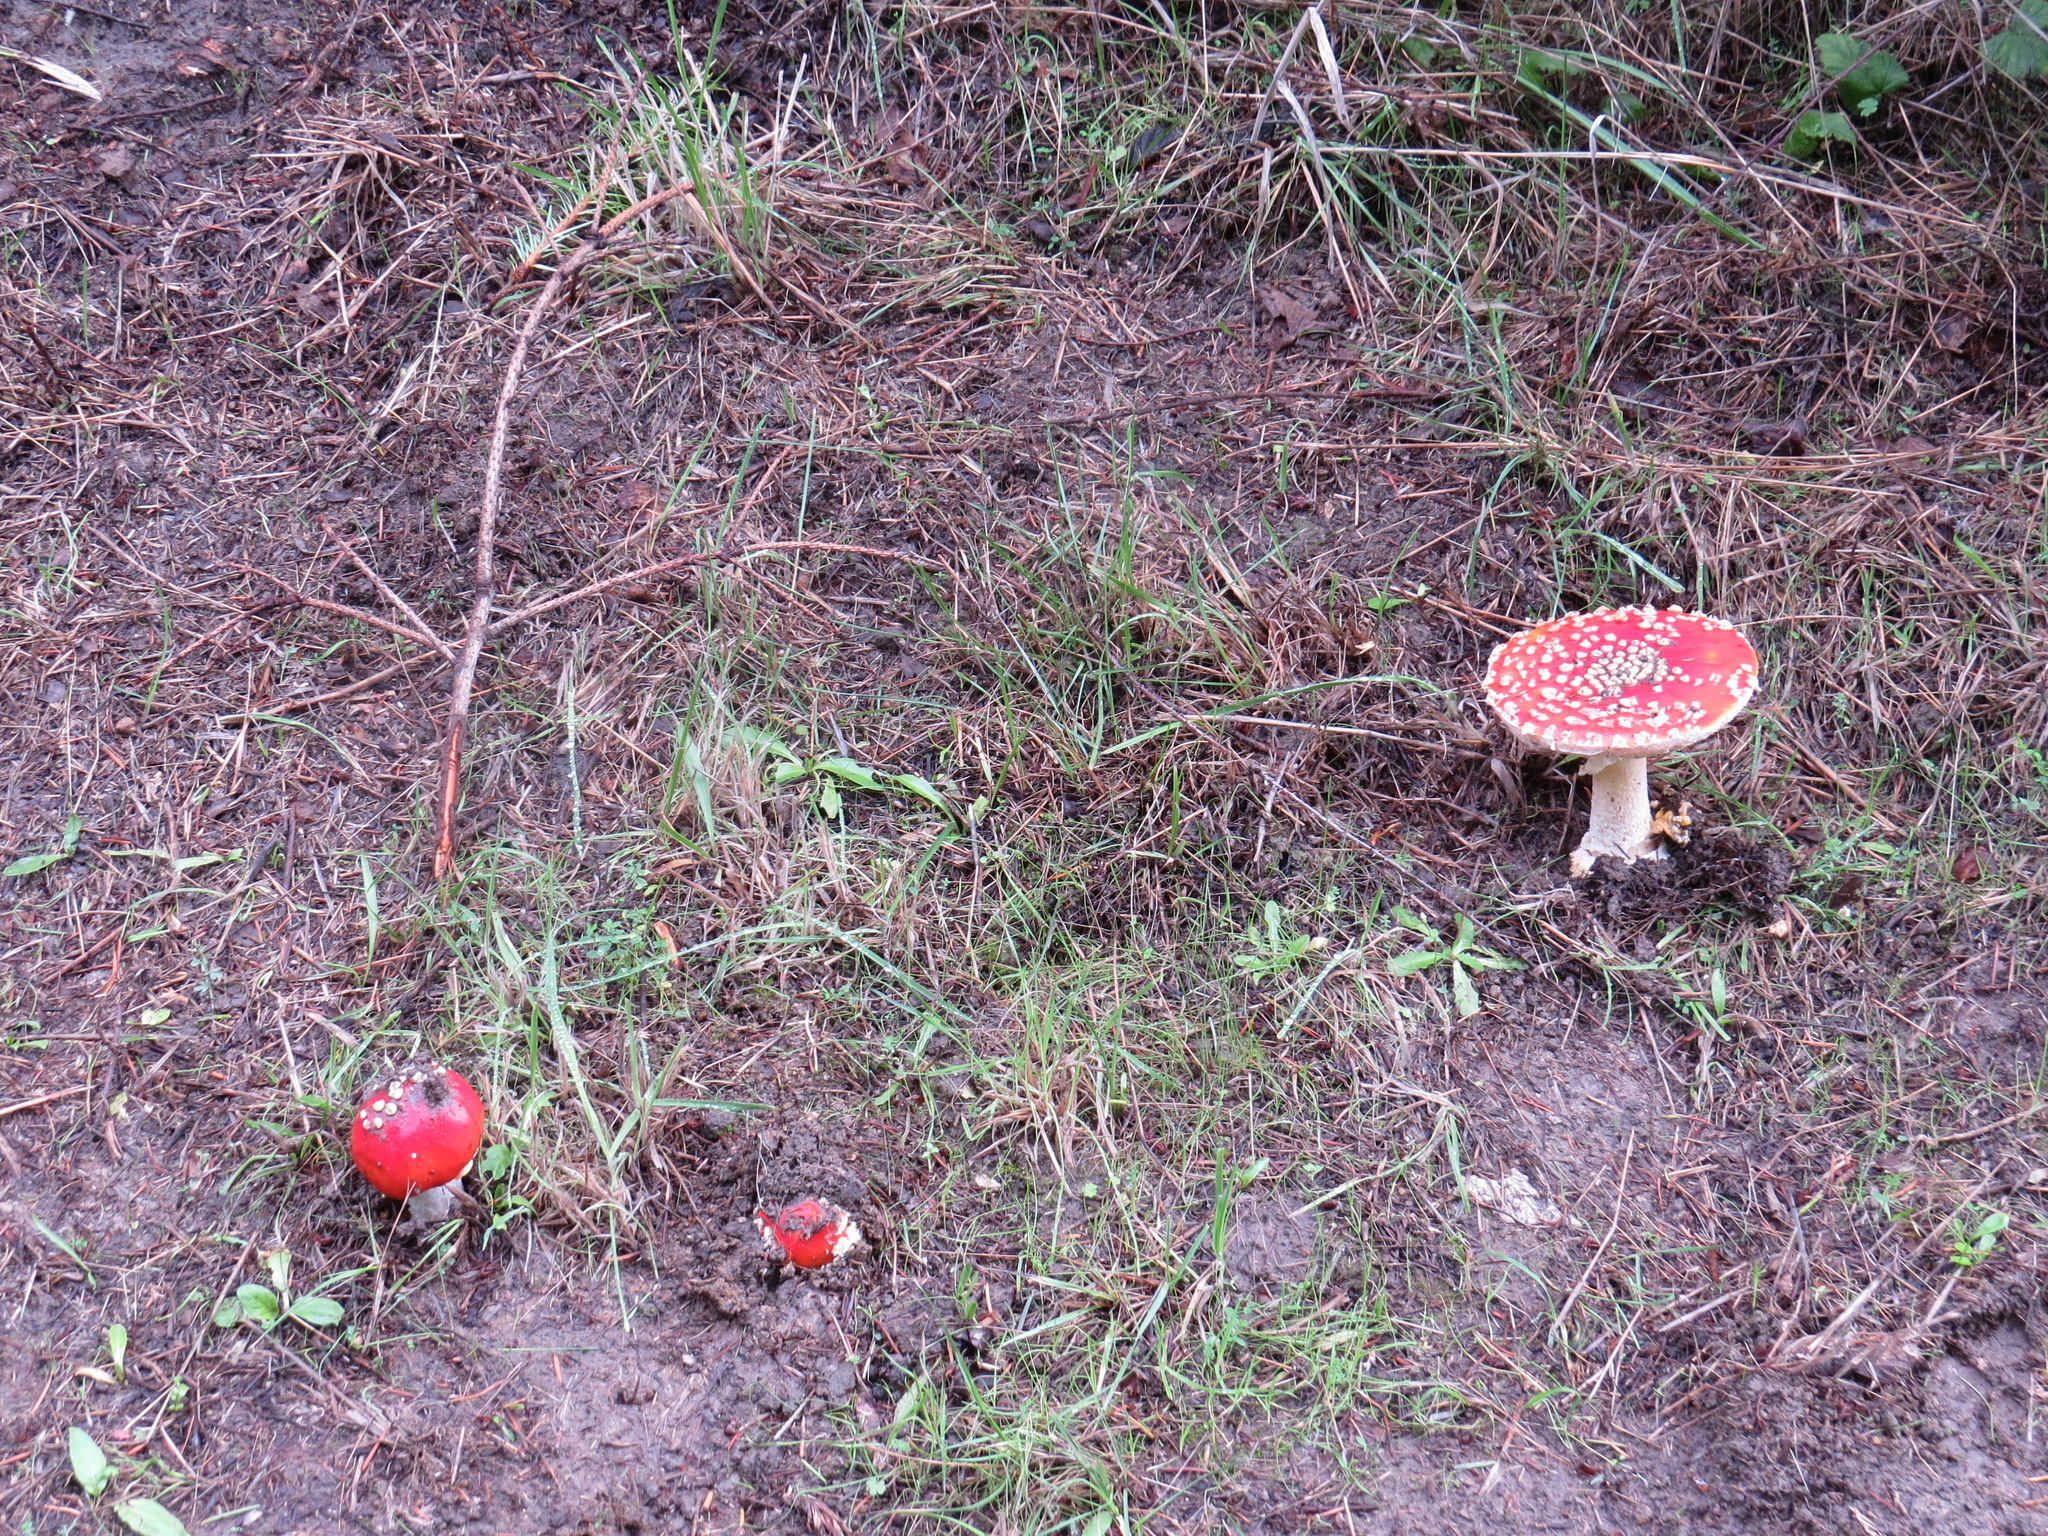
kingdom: Fungi
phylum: Basidiomycota
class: Agaricomycetes
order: Agaricales
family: Amanitaceae
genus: Amanita
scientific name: Amanita muscaria
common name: Fly agaric
